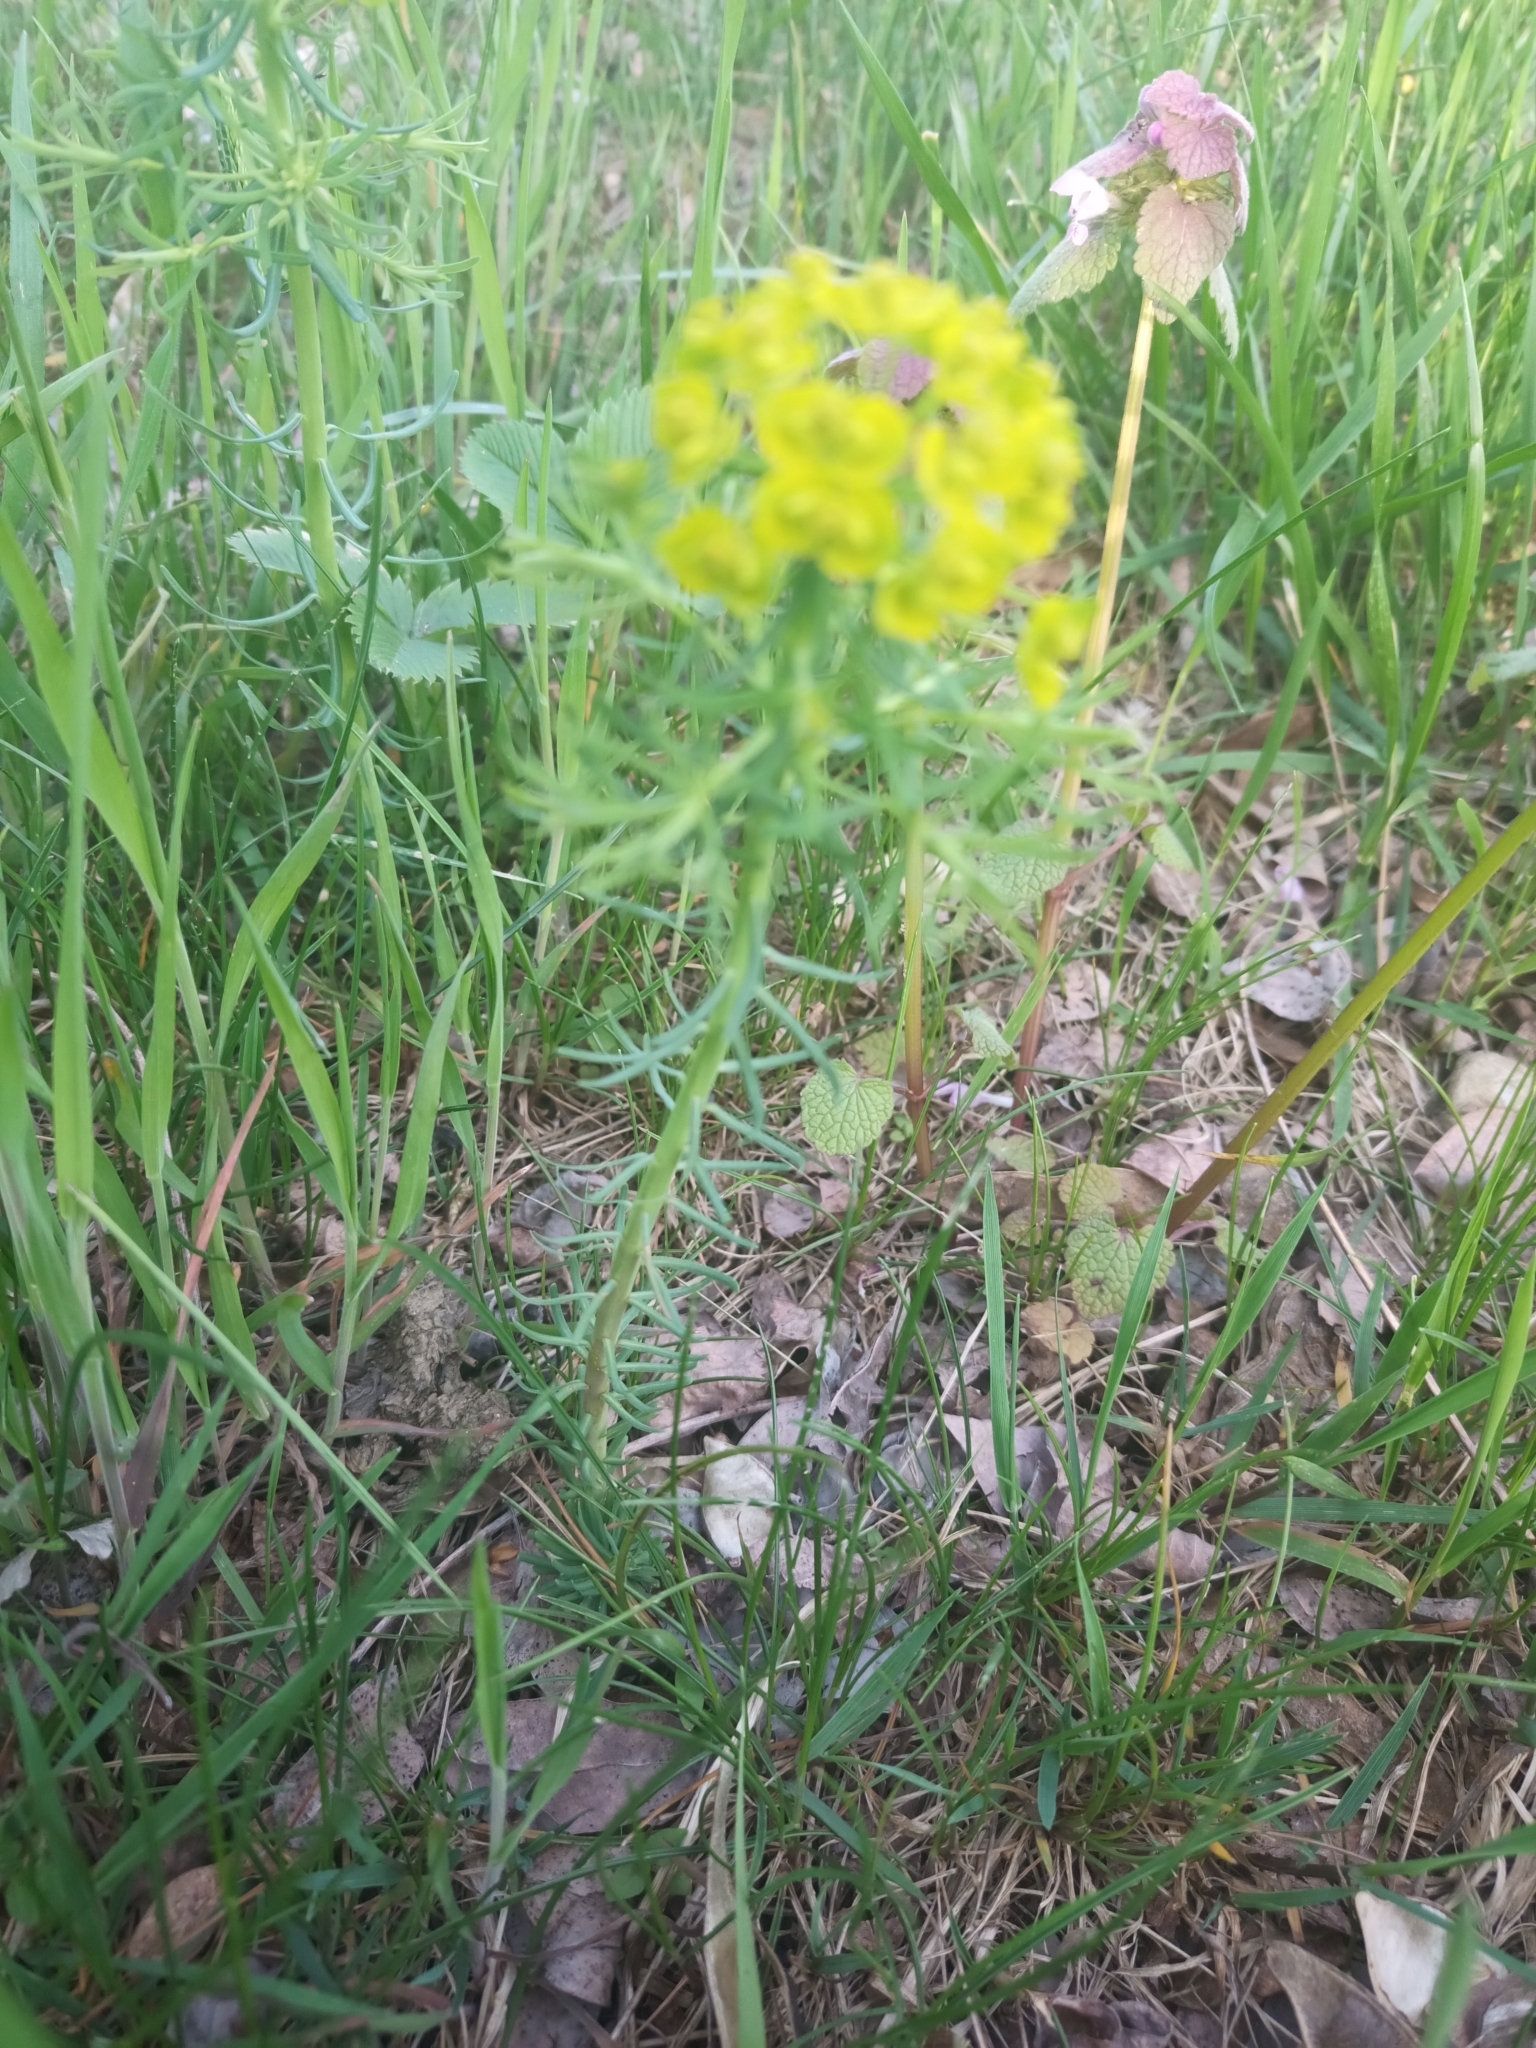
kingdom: Plantae
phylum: Tracheophyta
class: Magnoliopsida
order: Malpighiales
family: Euphorbiaceae
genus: Euphorbia
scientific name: Euphorbia cyparissias
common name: Cypress spurge
